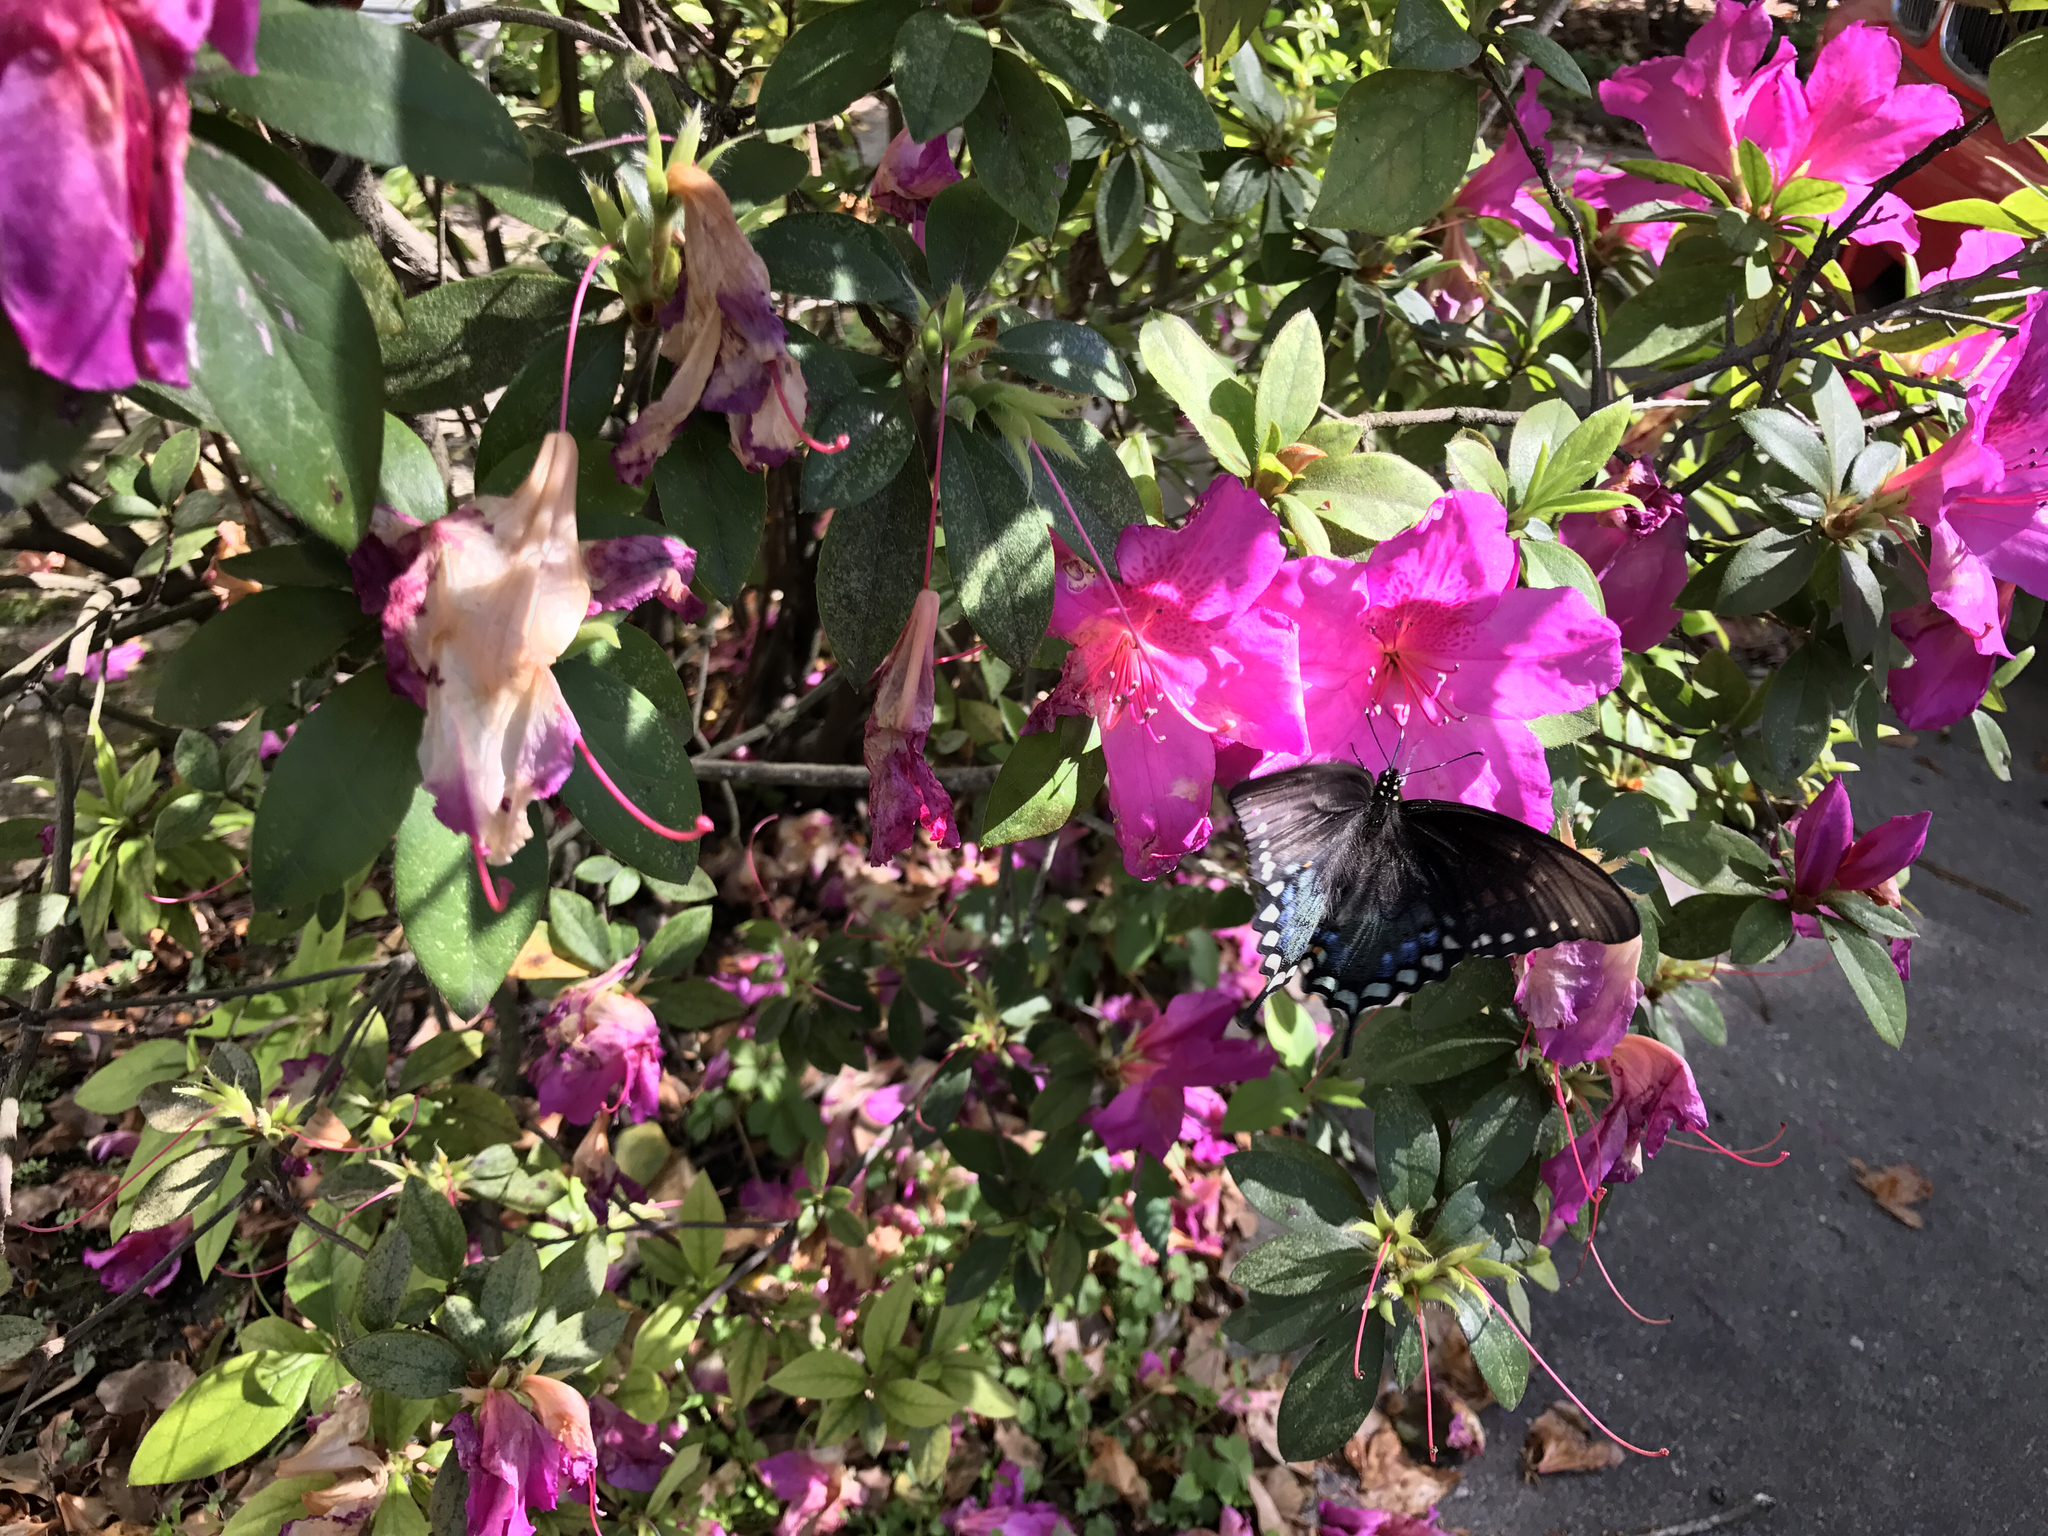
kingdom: Animalia
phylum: Arthropoda
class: Insecta
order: Lepidoptera
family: Papilionidae
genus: Papilio
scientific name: Papilio troilus
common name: Spicebush swallowtail
